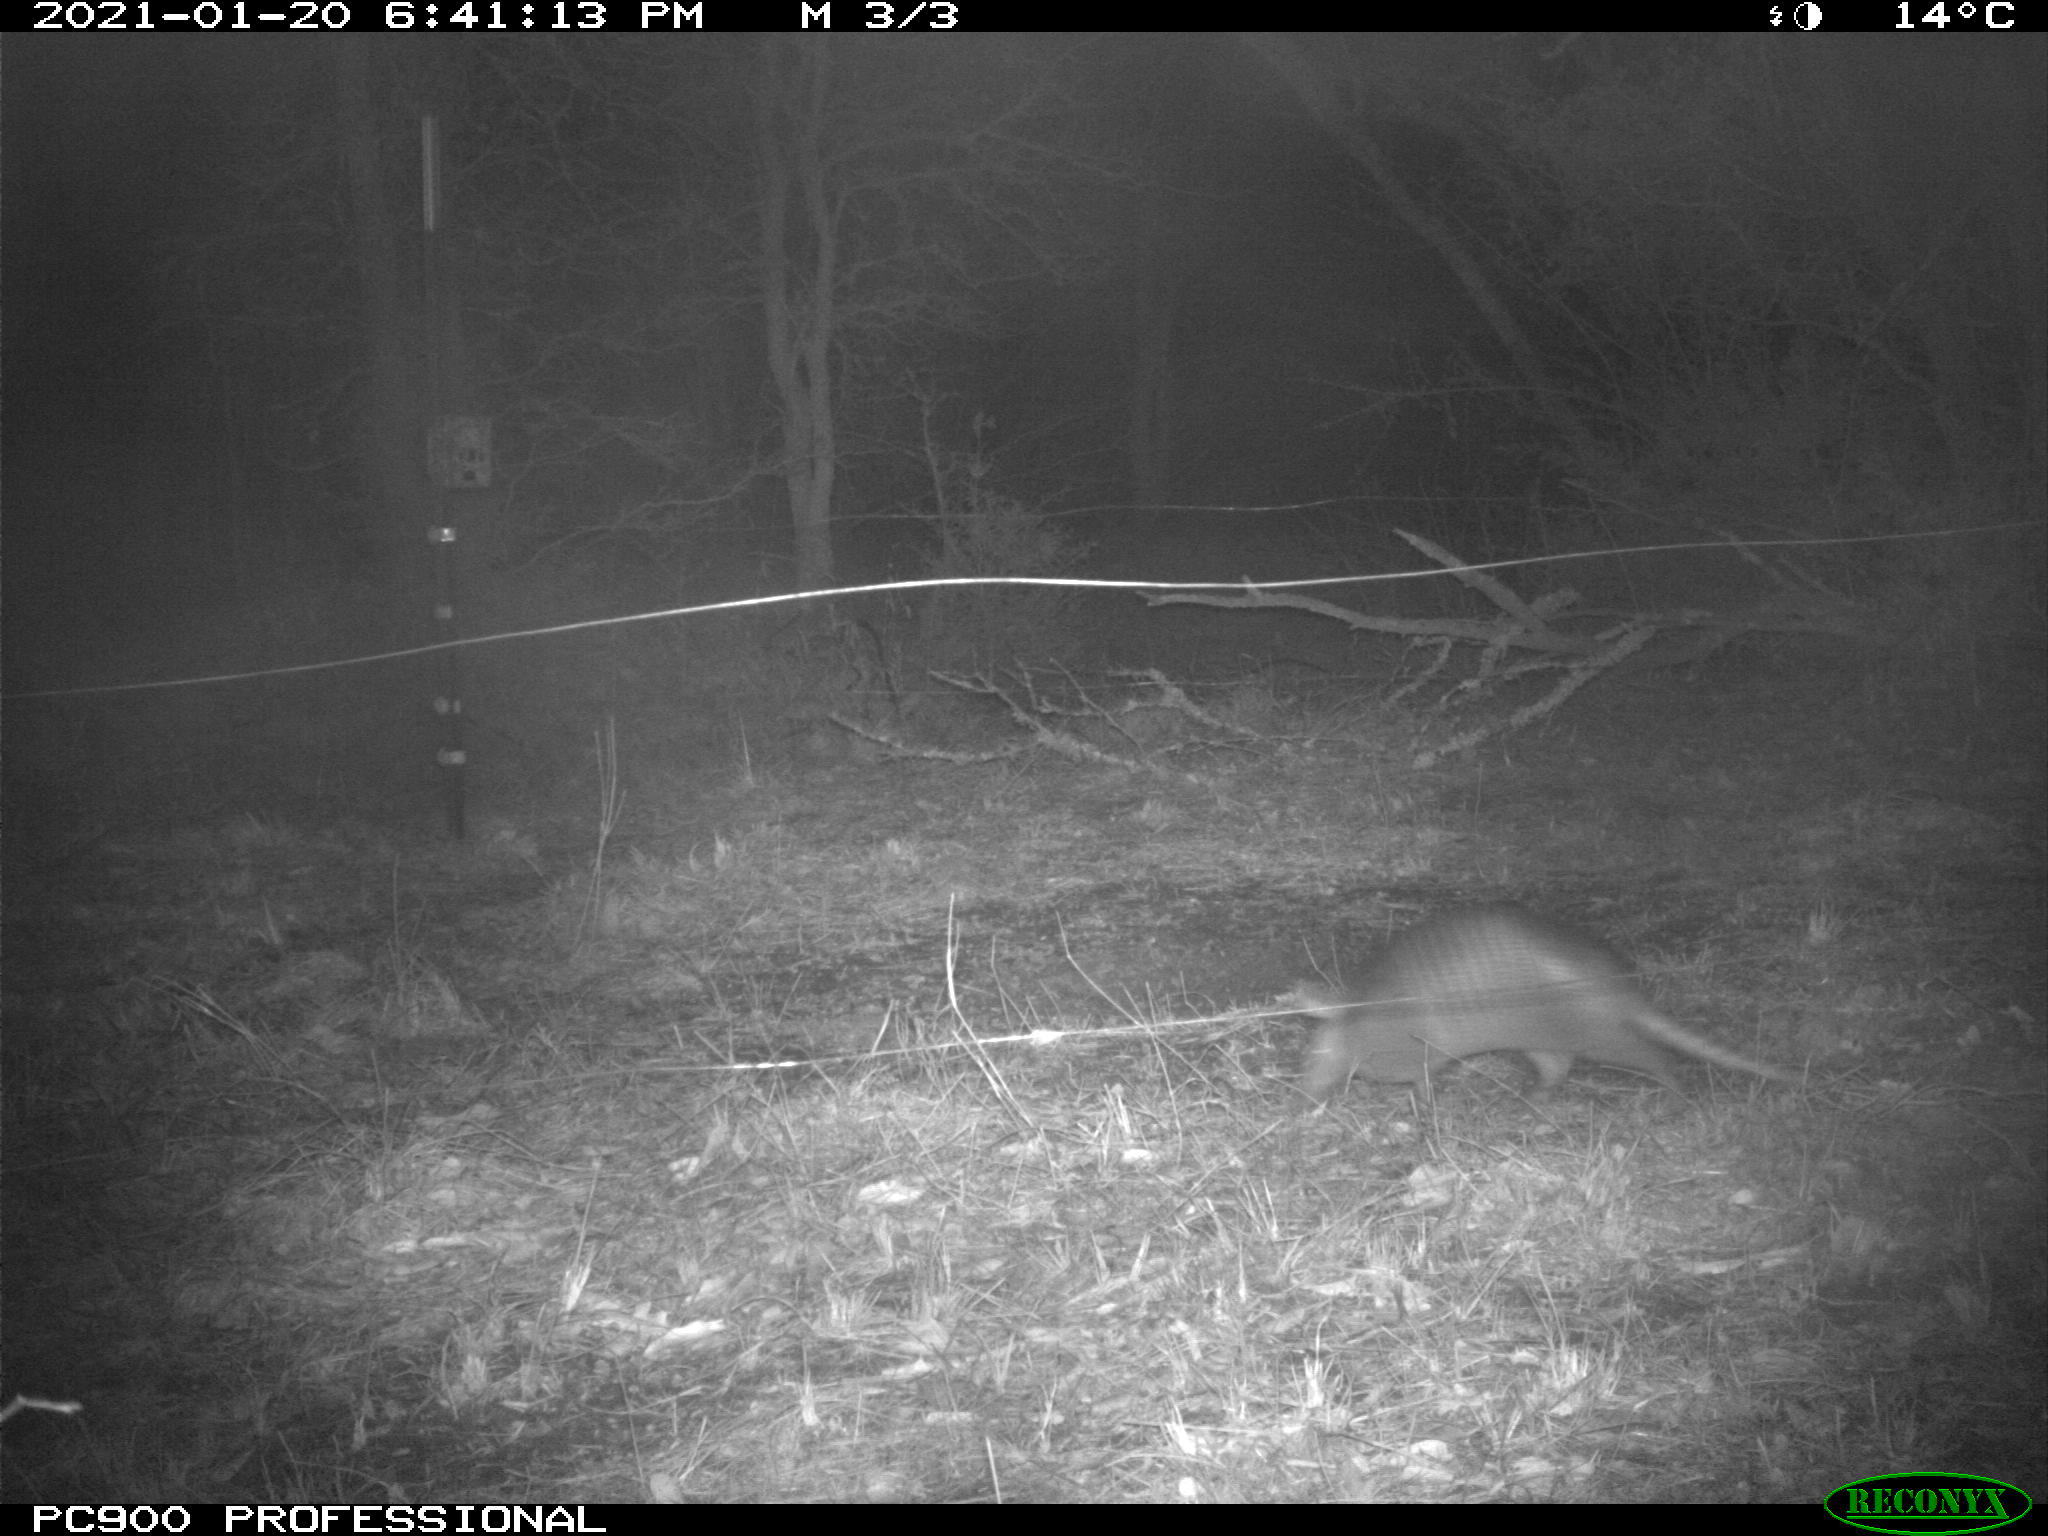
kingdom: Animalia
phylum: Chordata
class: Mammalia
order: Cingulata
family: Dasypodidae
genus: Dasypus
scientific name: Dasypus novemcinctus
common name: Nine-banded armadillo
